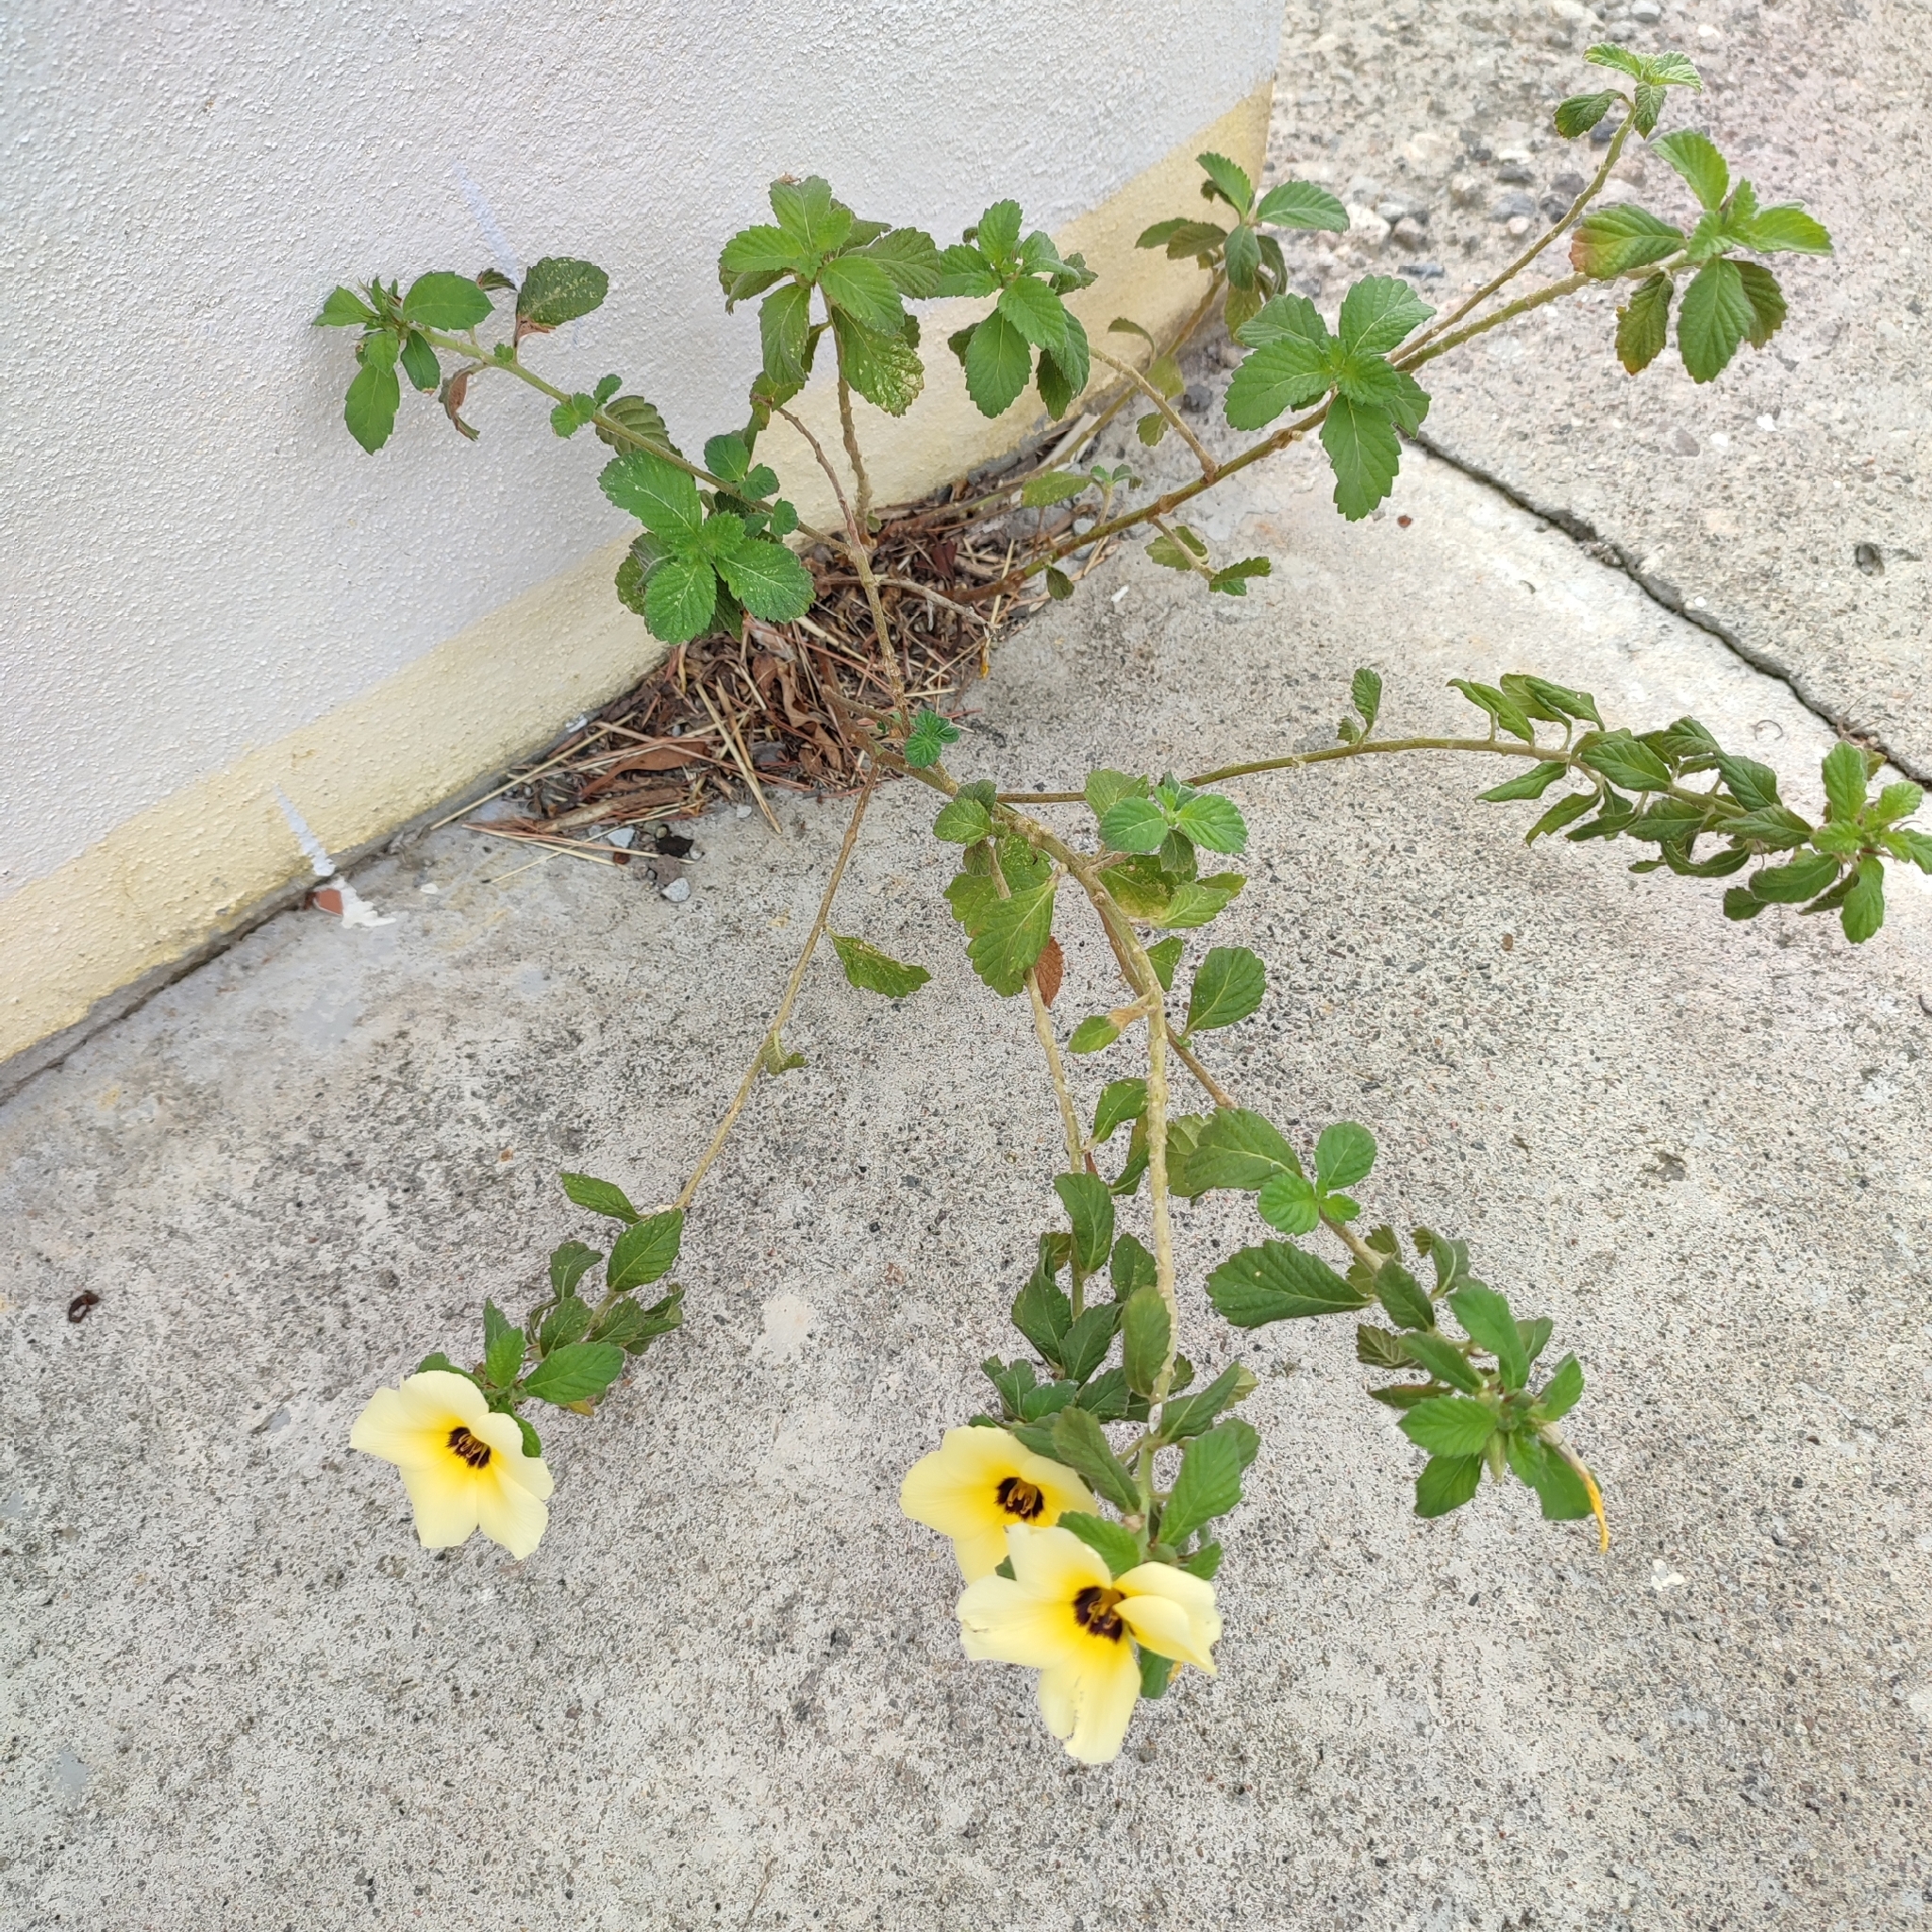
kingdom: Plantae
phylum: Tracheophyta
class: Magnoliopsida
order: Malpighiales
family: Turneraceae
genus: Turnera
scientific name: Turnera subulata
